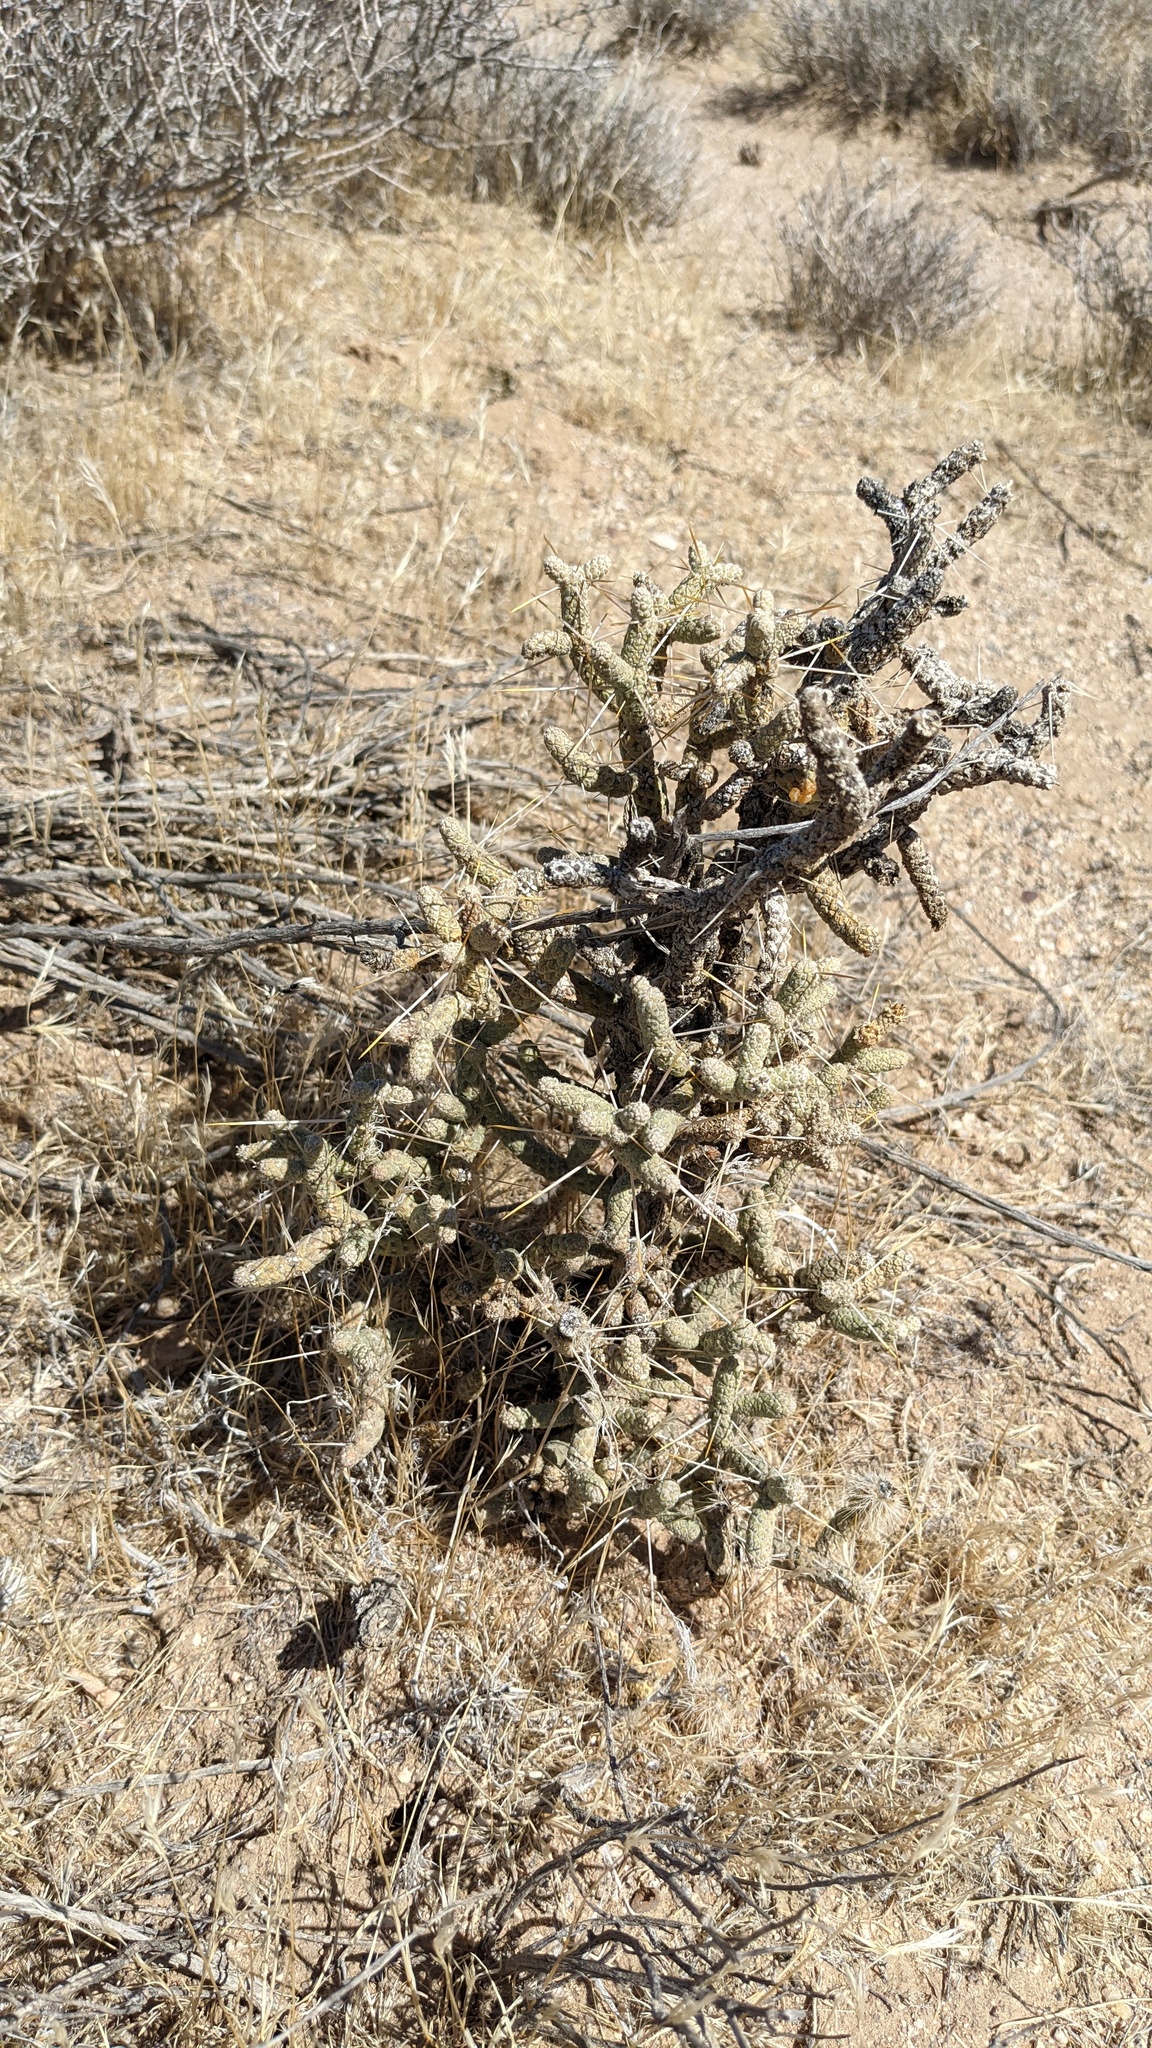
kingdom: Plantae
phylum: Tracheophyta
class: Magnoliopsida
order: Caryophyllales
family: Cactaceae
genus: Cylindropuntia
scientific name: Cylindropuntia ramosissima
